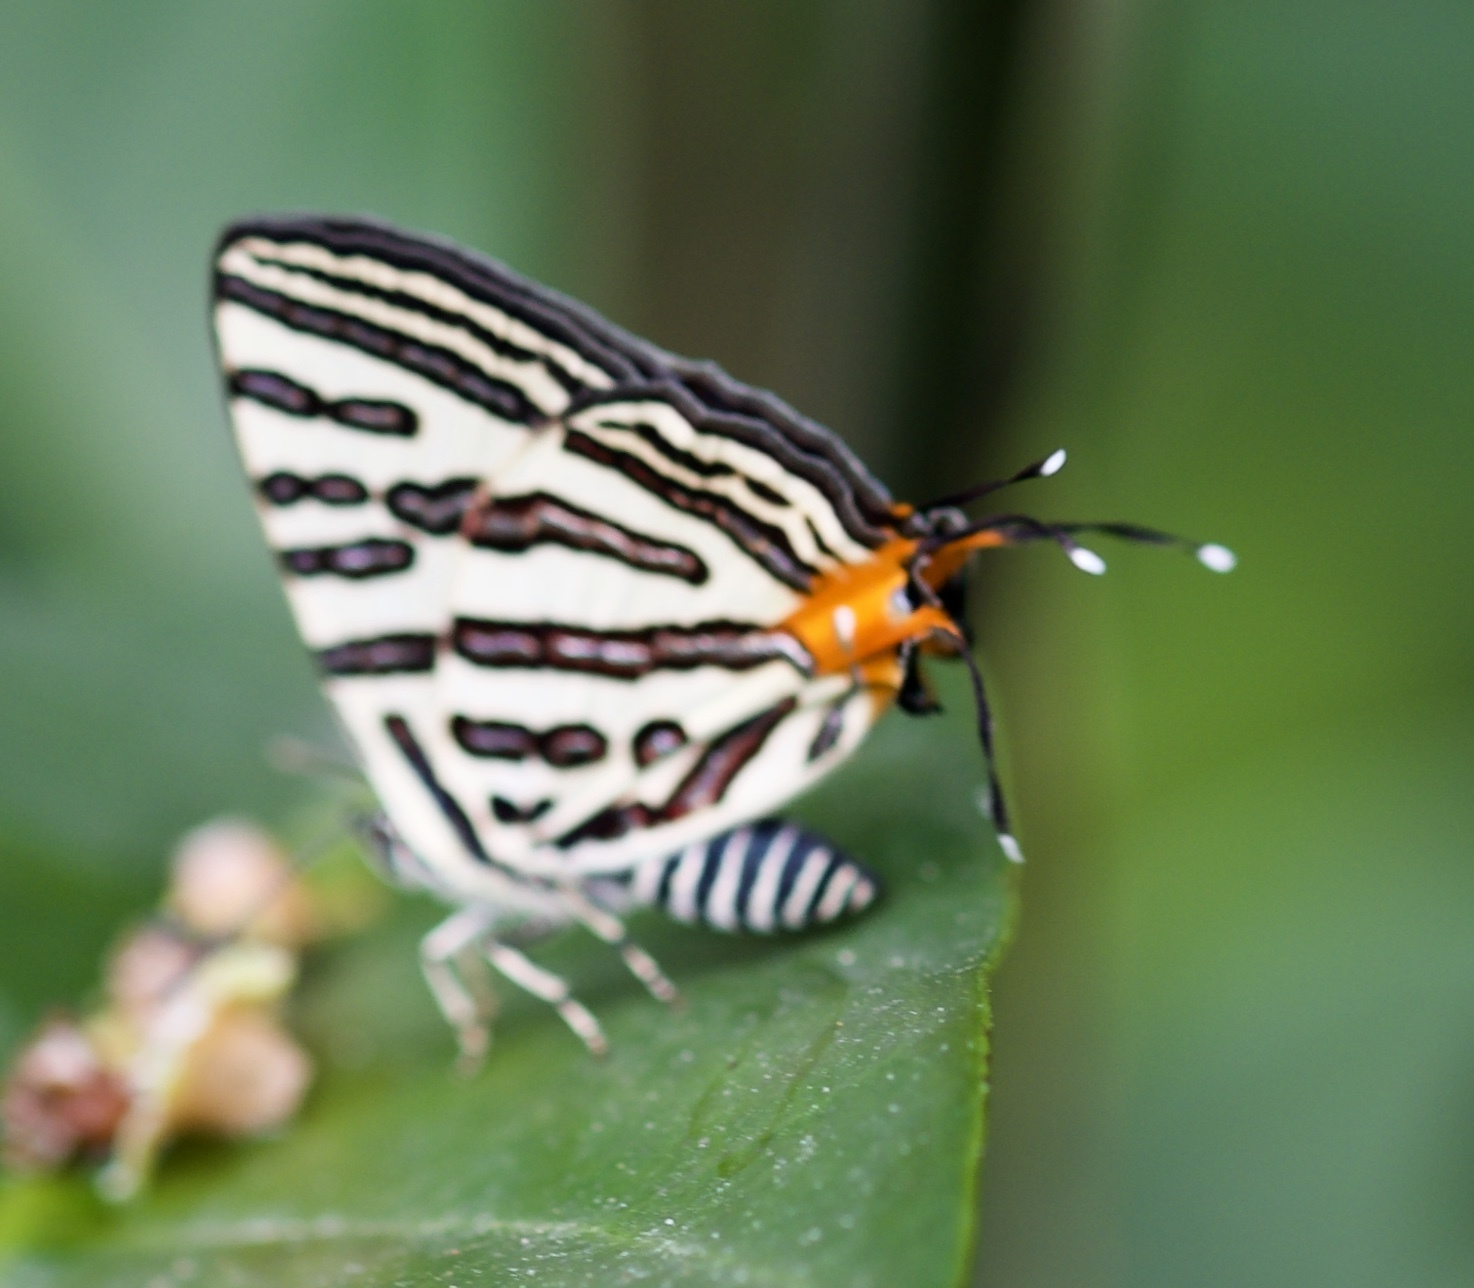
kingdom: Animalia
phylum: Arthropoda
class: Insecta
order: Lepidoptera
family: Lycaenidae
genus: Cigaritis
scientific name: Cigaritis syama
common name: Club silverline
